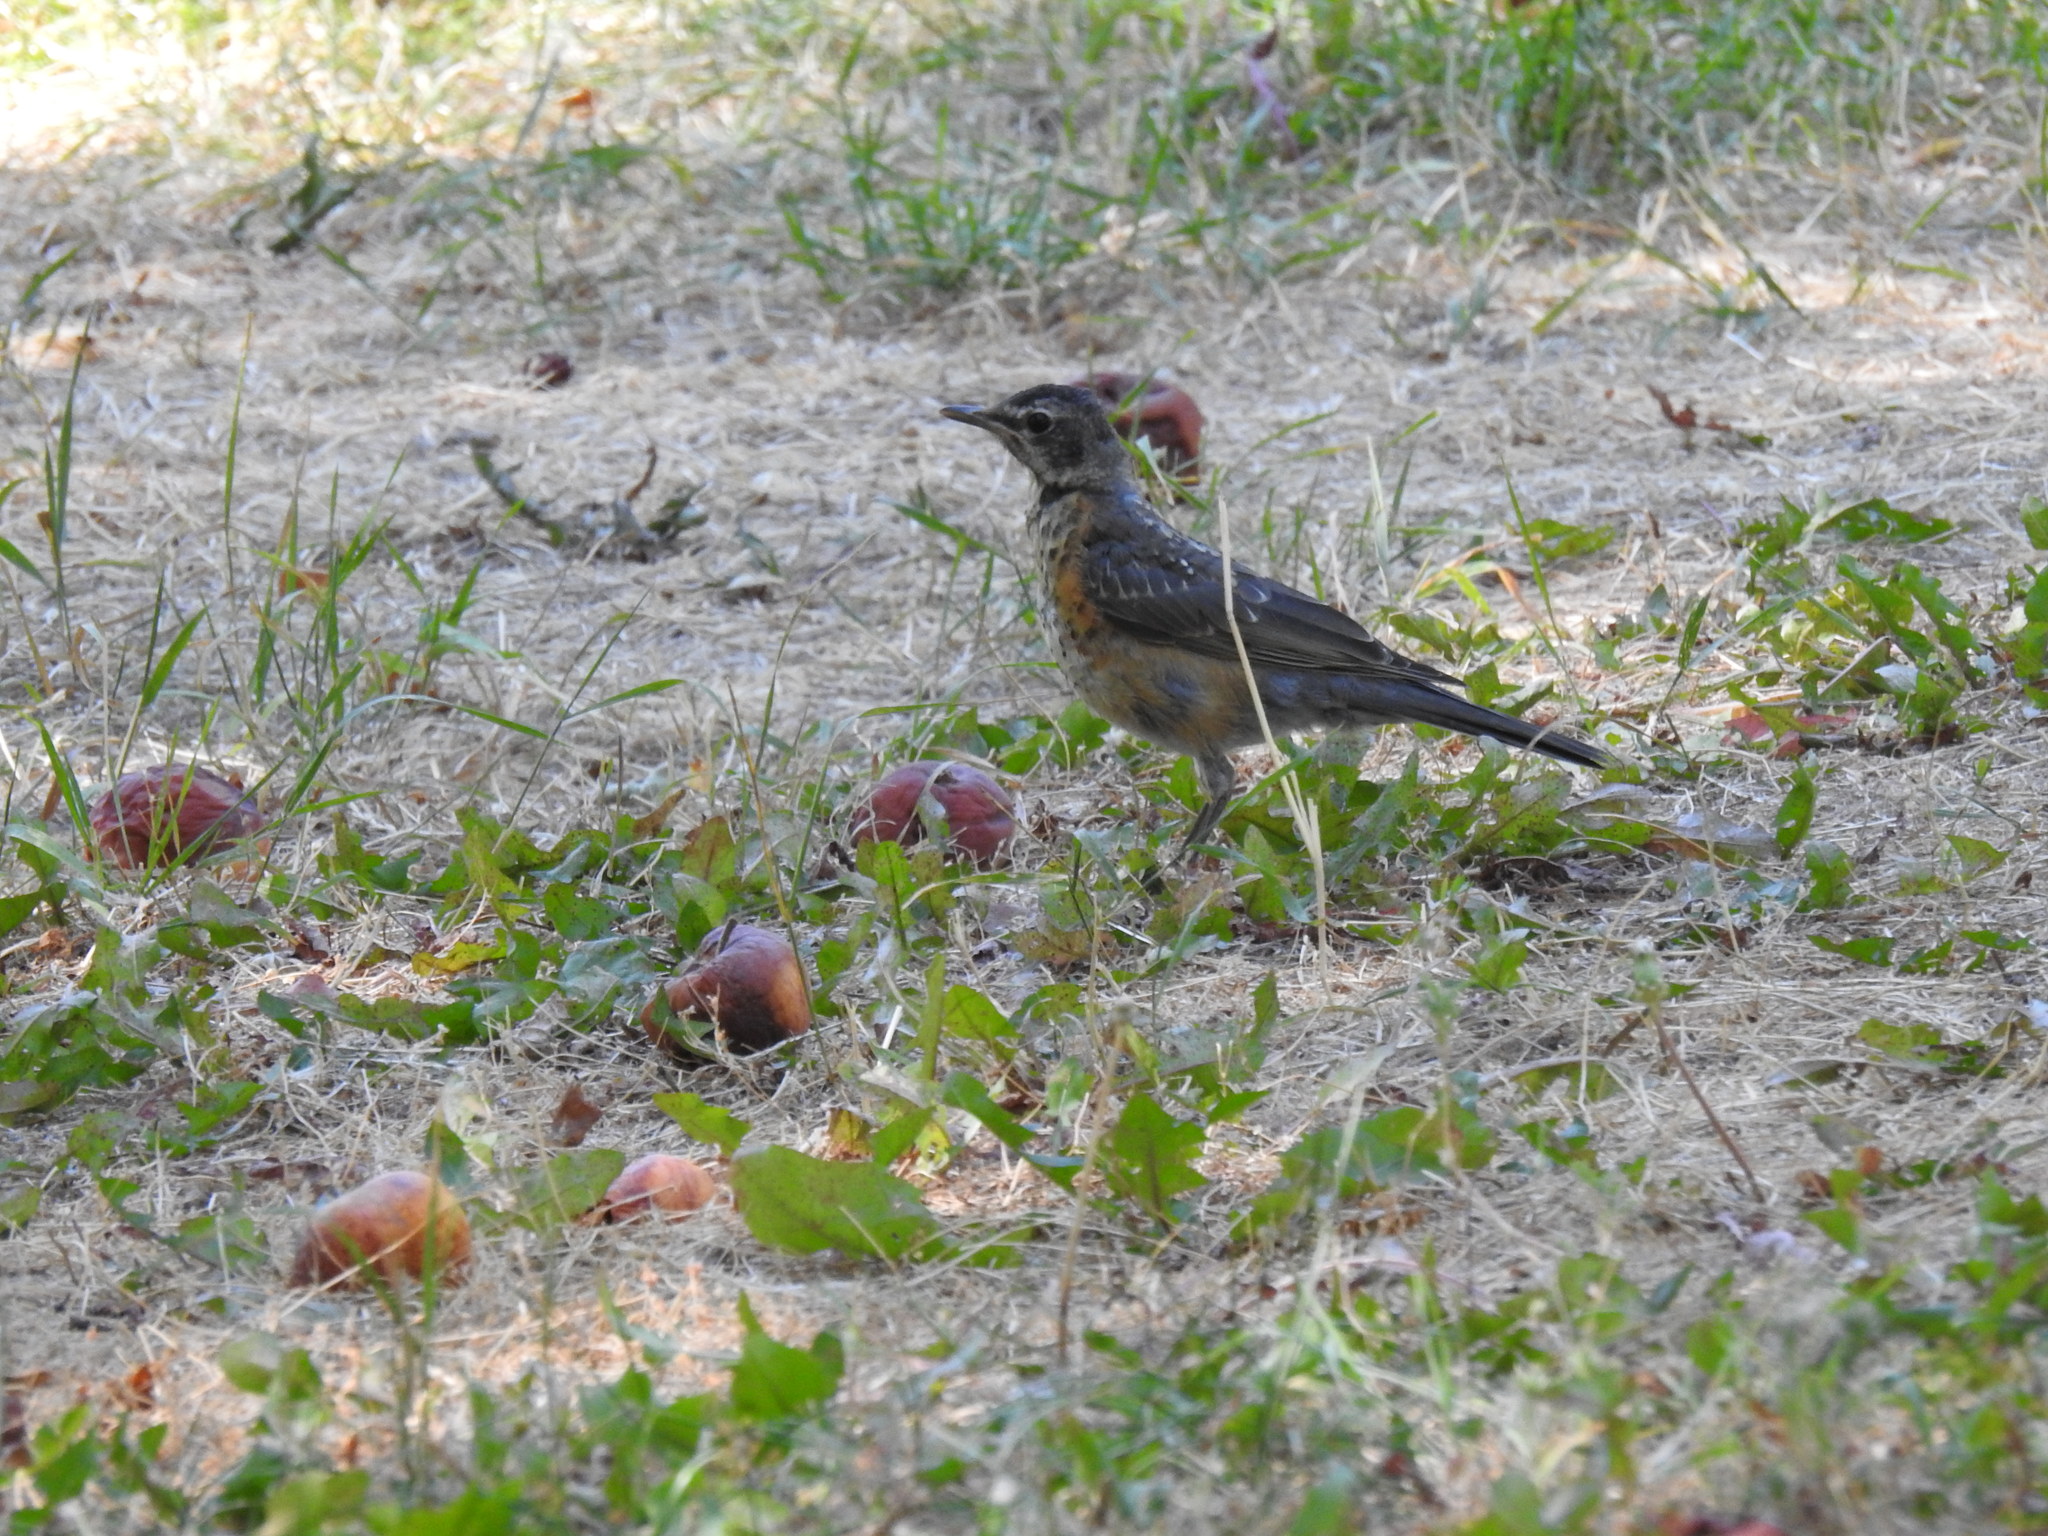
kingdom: Animalia
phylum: Chordata
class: Aves
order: Passeriformes
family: Turdidae
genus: Turdus
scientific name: Turdus migratorius
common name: American robin
